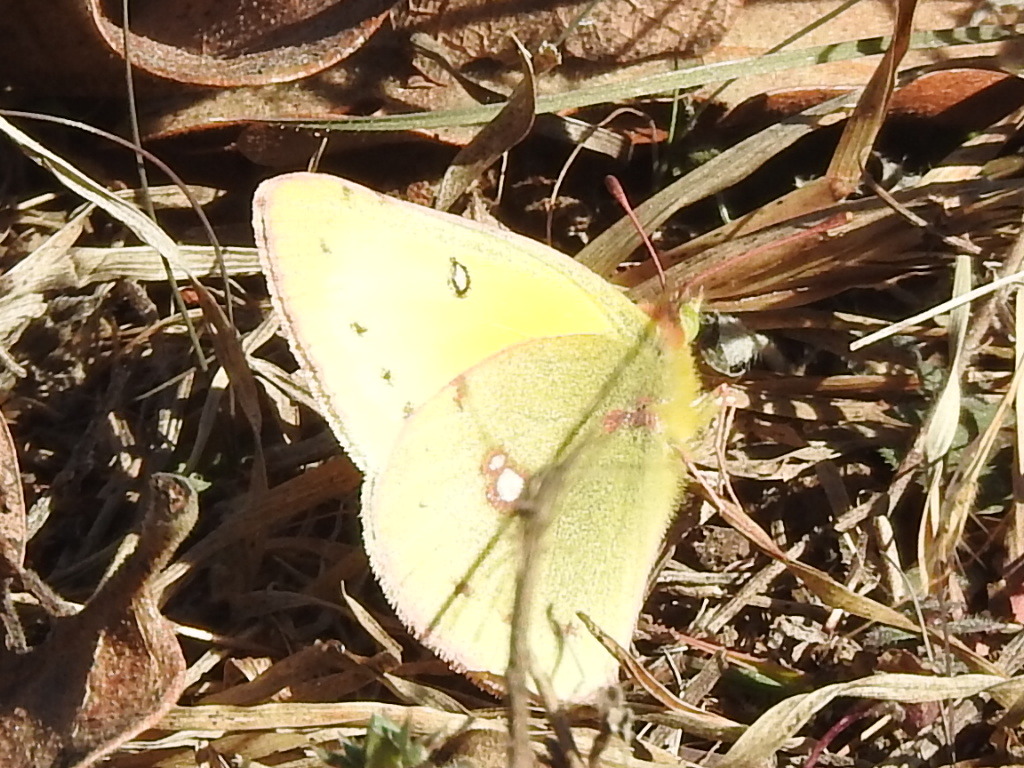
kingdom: Animalia
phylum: Arthropoda
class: Insecta
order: Lepidoptera
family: Pieridae
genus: Colias
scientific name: Colias eurytheme
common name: Alfalfa butterfly
